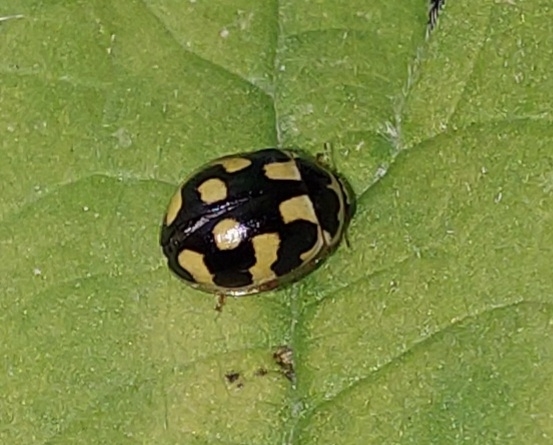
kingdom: Animalia
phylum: Arthropoda
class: Insecta
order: Coleoptera
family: Coccinellidae
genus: Propylaea
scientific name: Propylaea quatuordecimpunctata
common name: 14-spotted ladybird beetle
